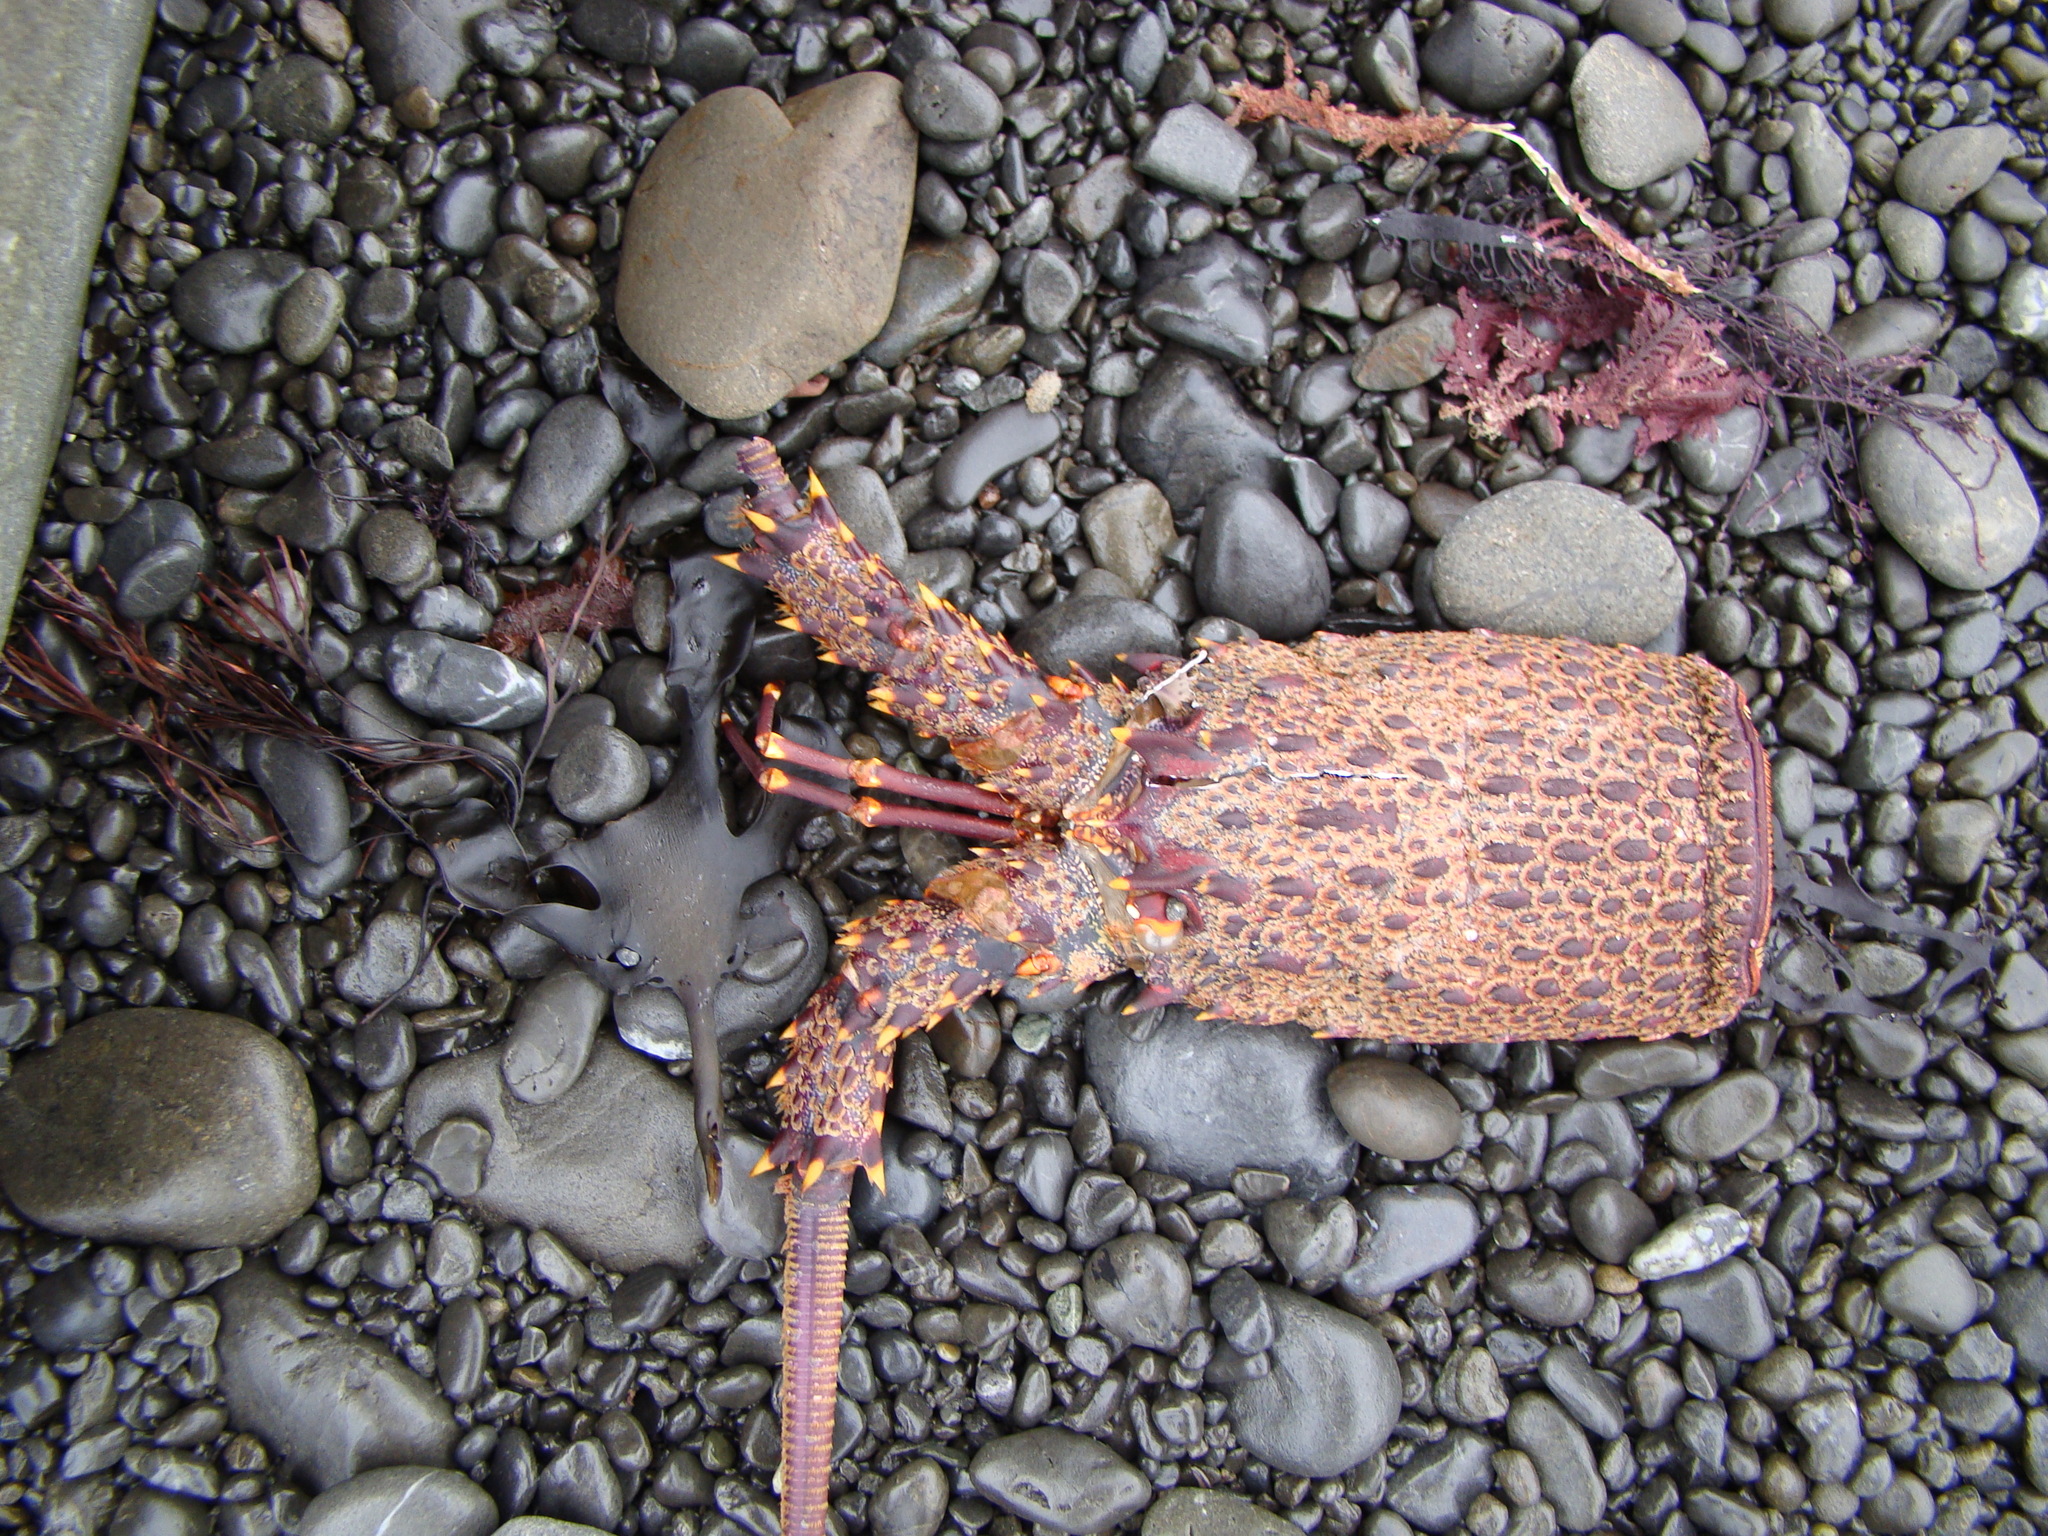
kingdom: Animalia
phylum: Arthropoda
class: Malacostraca
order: Decapoda
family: Palinuridae
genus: Jasus
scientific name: Jasus edwardsii
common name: Red rock lobster
